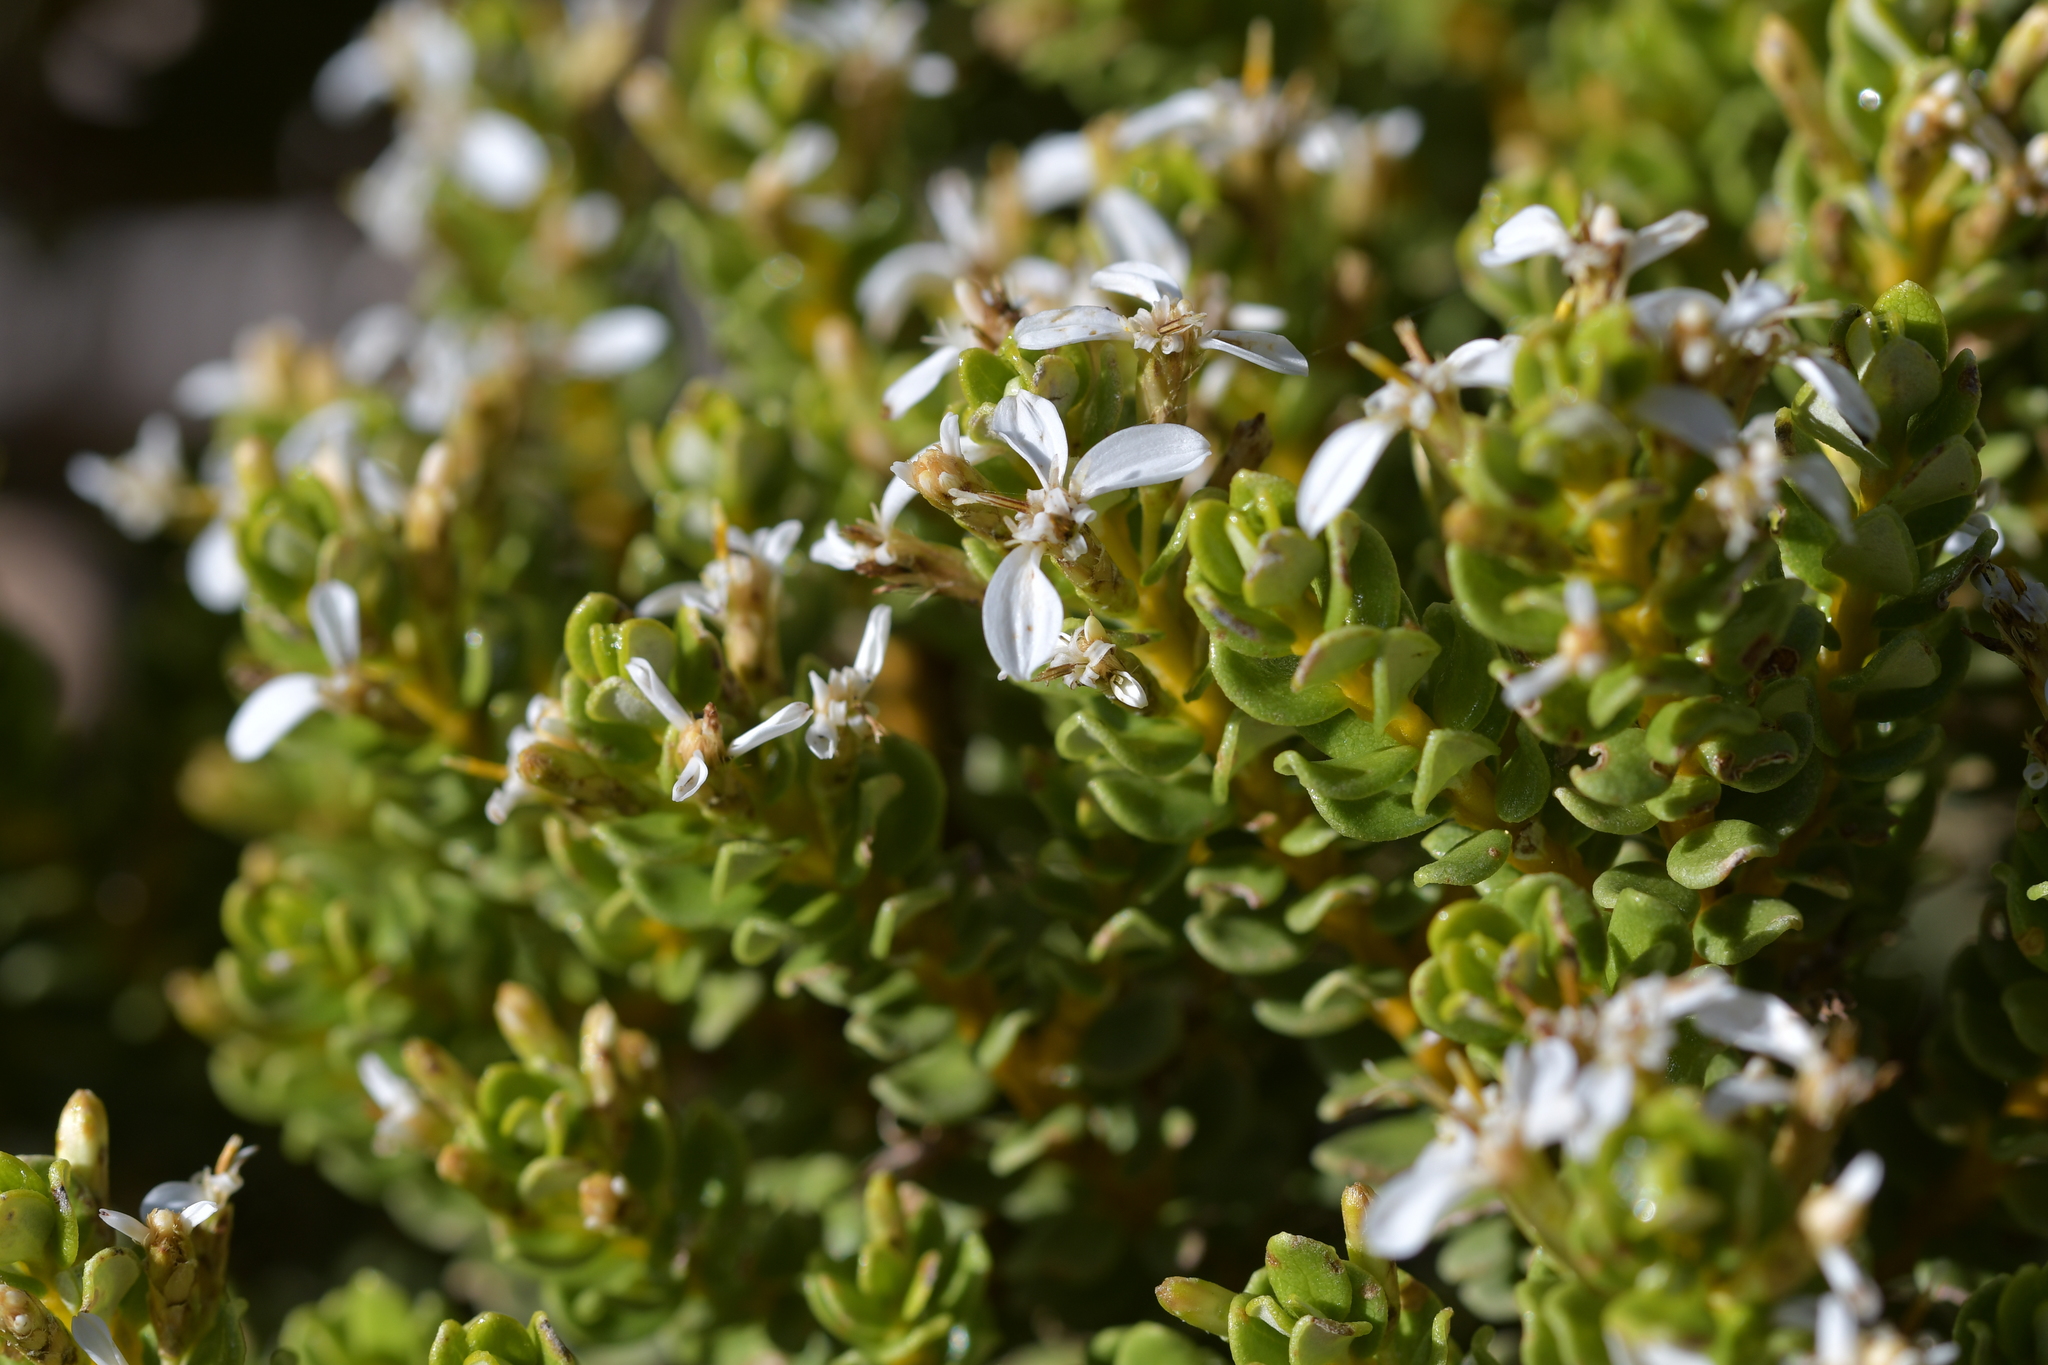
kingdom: Plantae
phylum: Tracheophyta
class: Magnoliopsida
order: Asterales
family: Asteraceae
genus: Olearia
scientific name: Olearia nummularifolia
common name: Sticky daisybush
